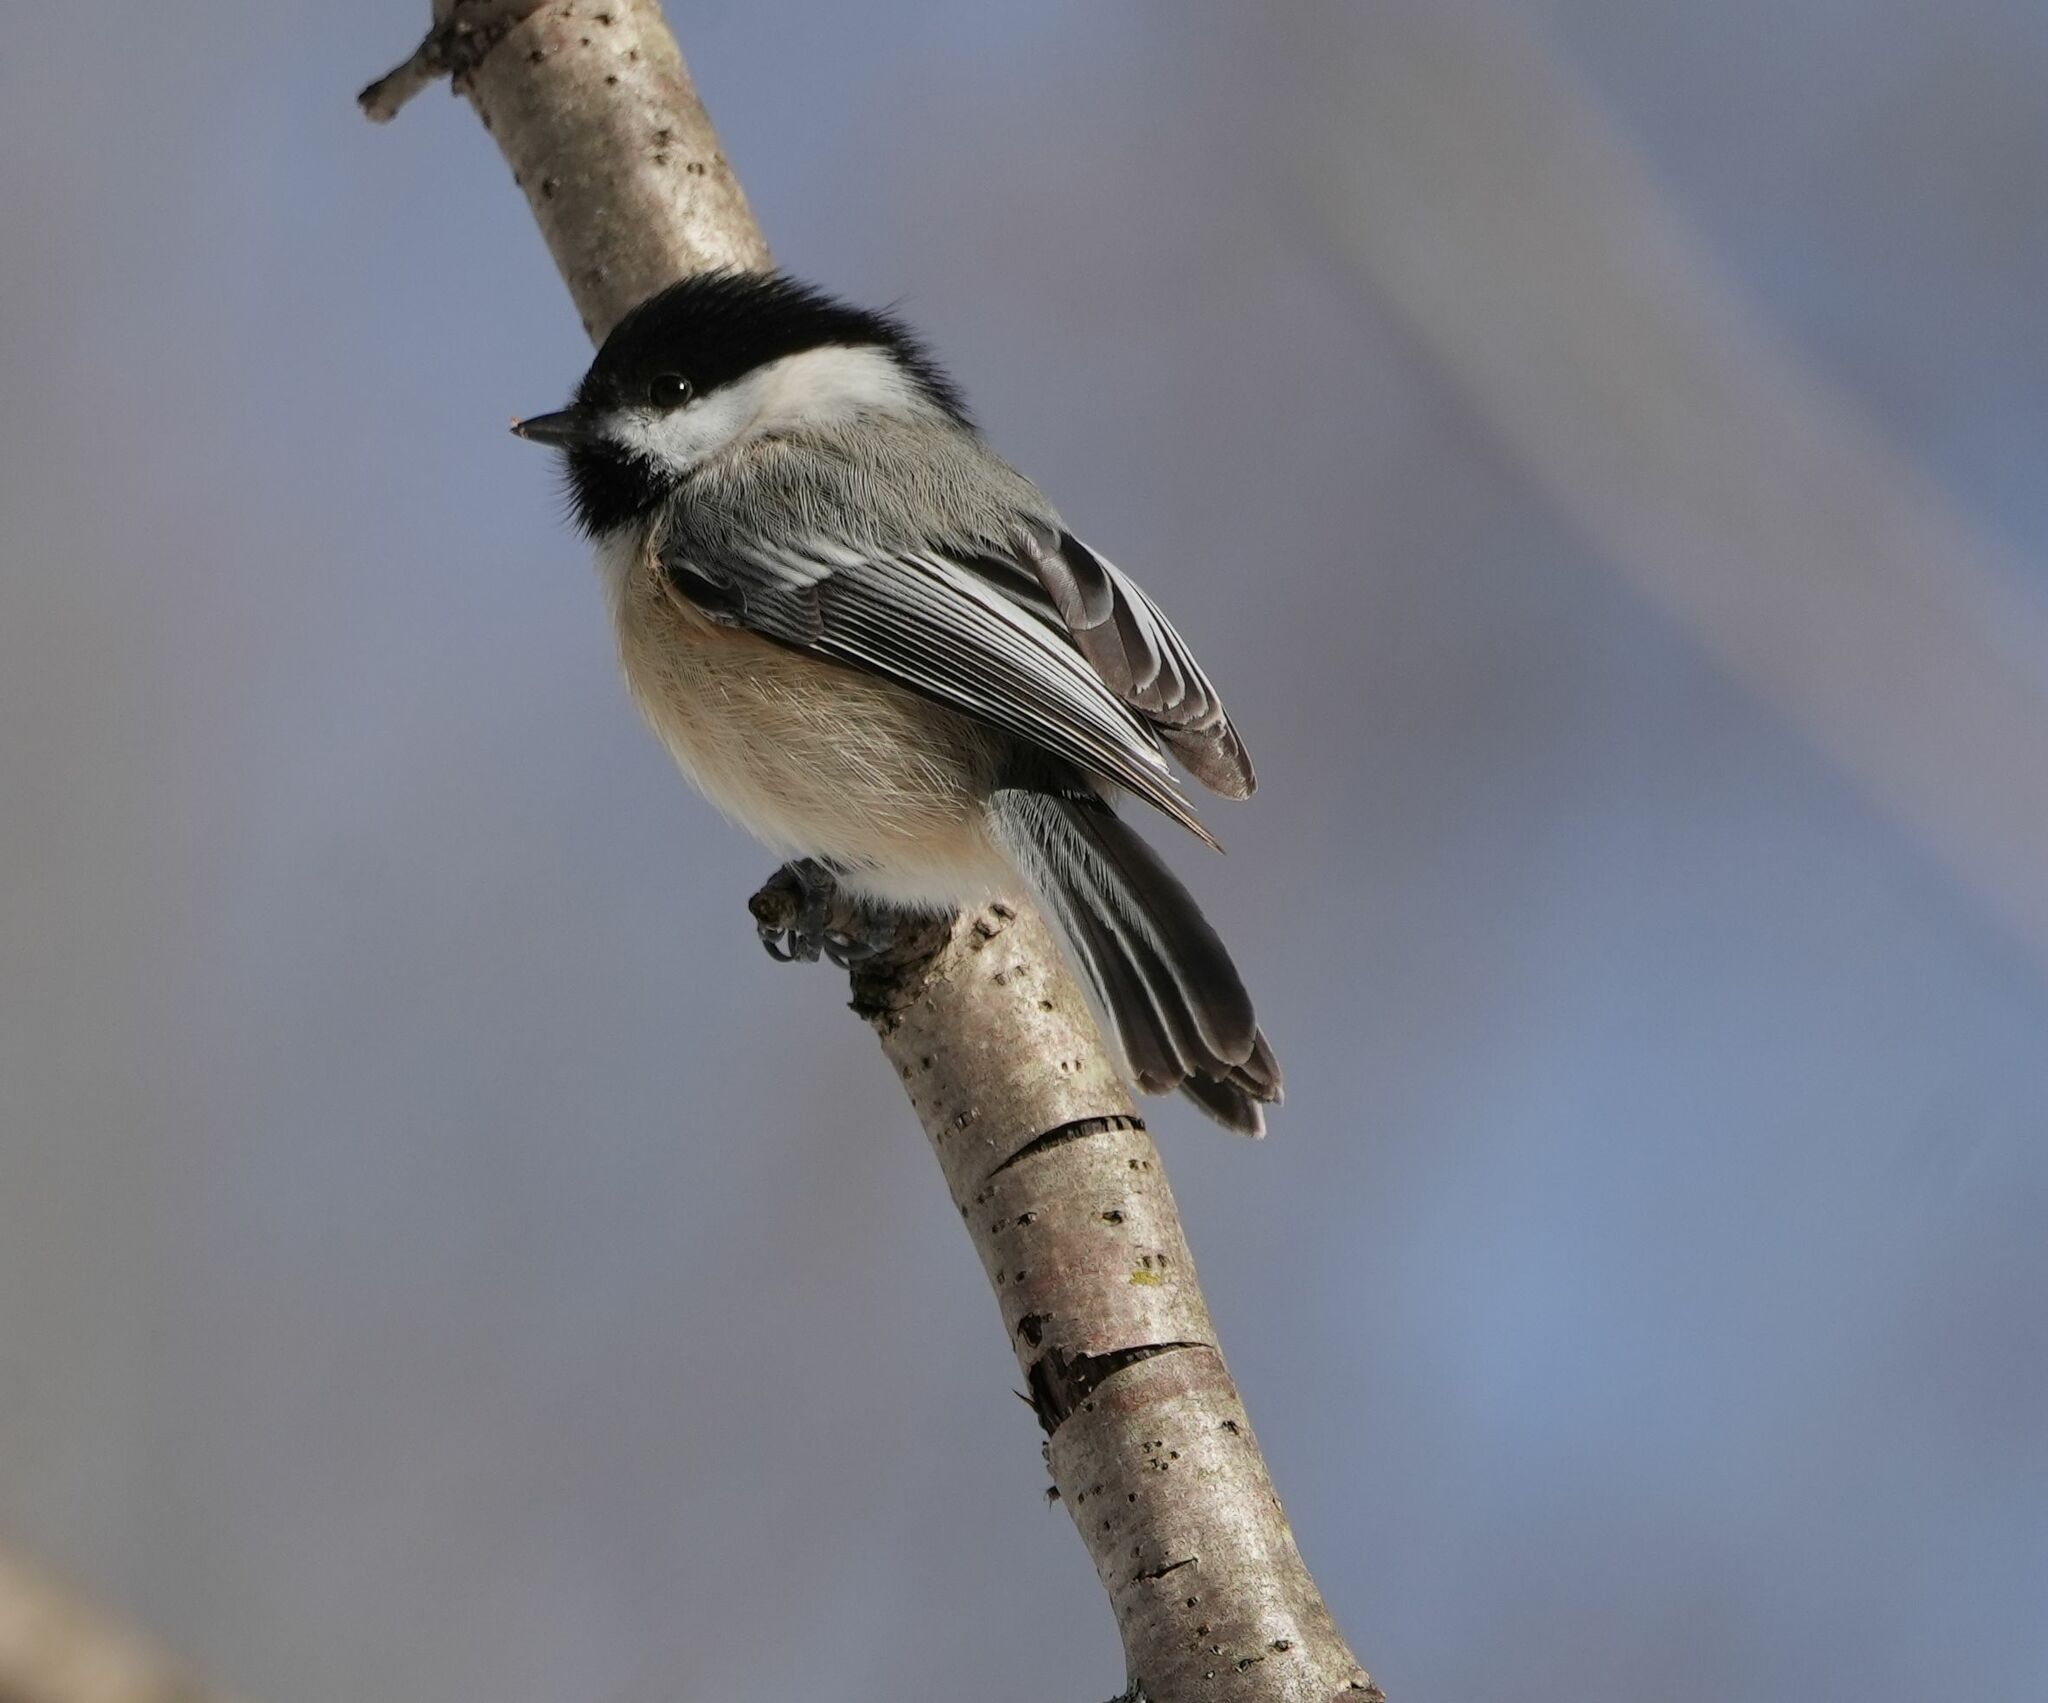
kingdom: Animalia
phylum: Chordata
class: Aves
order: Passeriformes
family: Paridae
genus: Poecile
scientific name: Poecile atricapillus
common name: Black-capped chickadee
